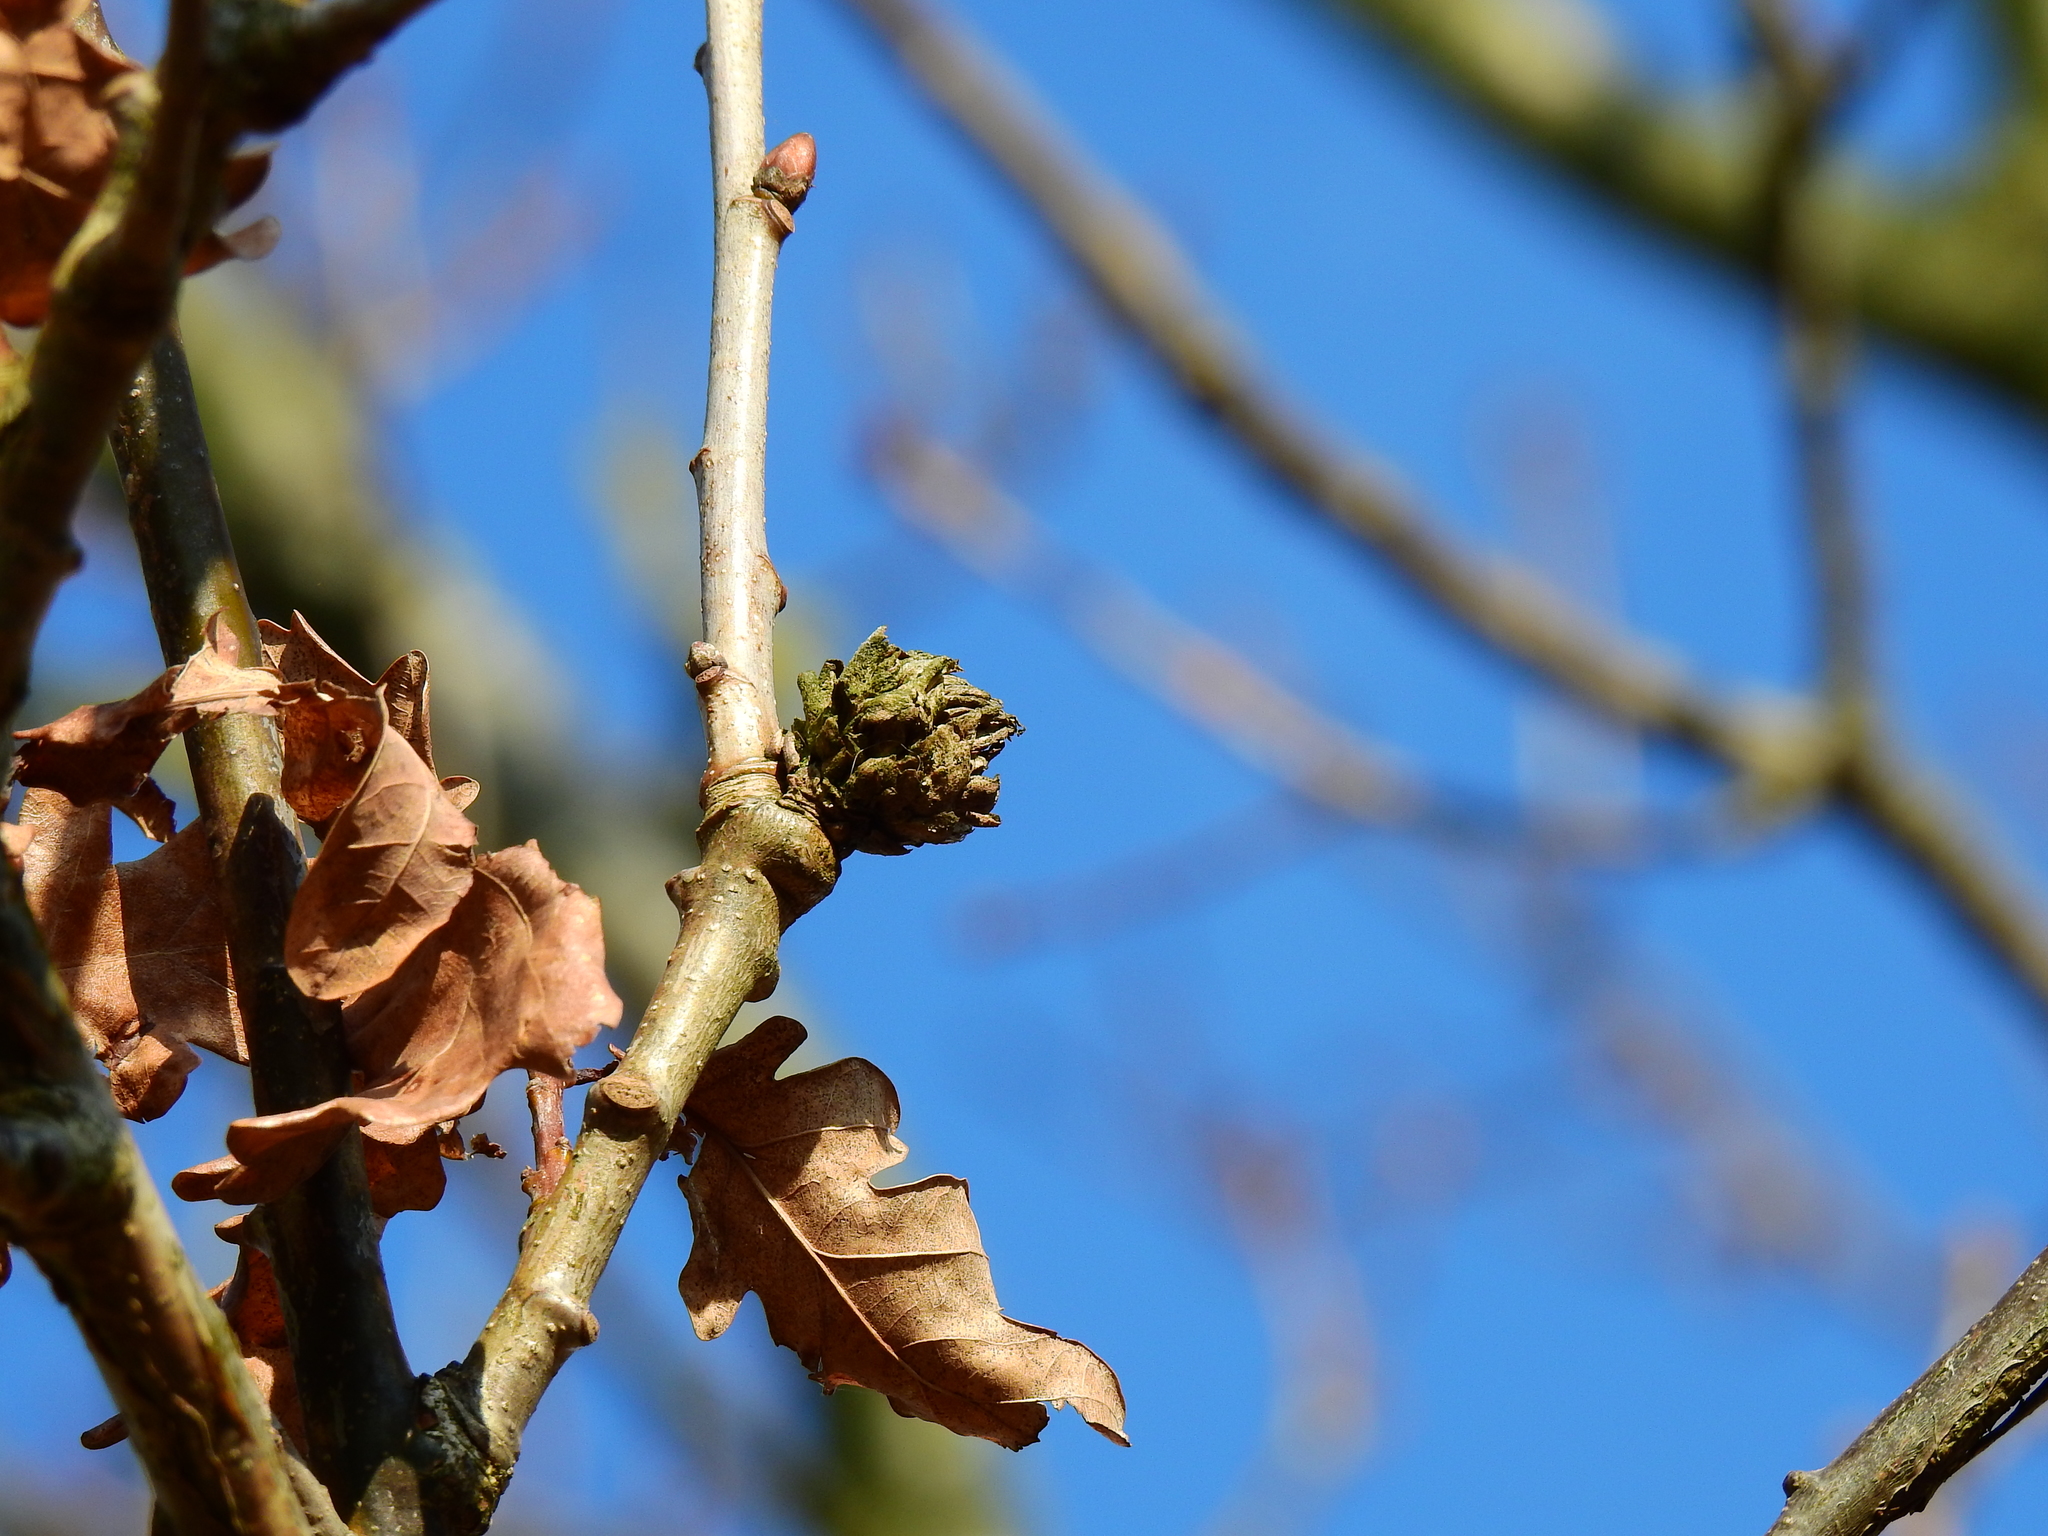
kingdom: Animalia
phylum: Arthropoda
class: Insecta
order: Hymenoptera
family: Cynipidae
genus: Andricus
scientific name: Andricus foecundatrix
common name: Artichoke gall
